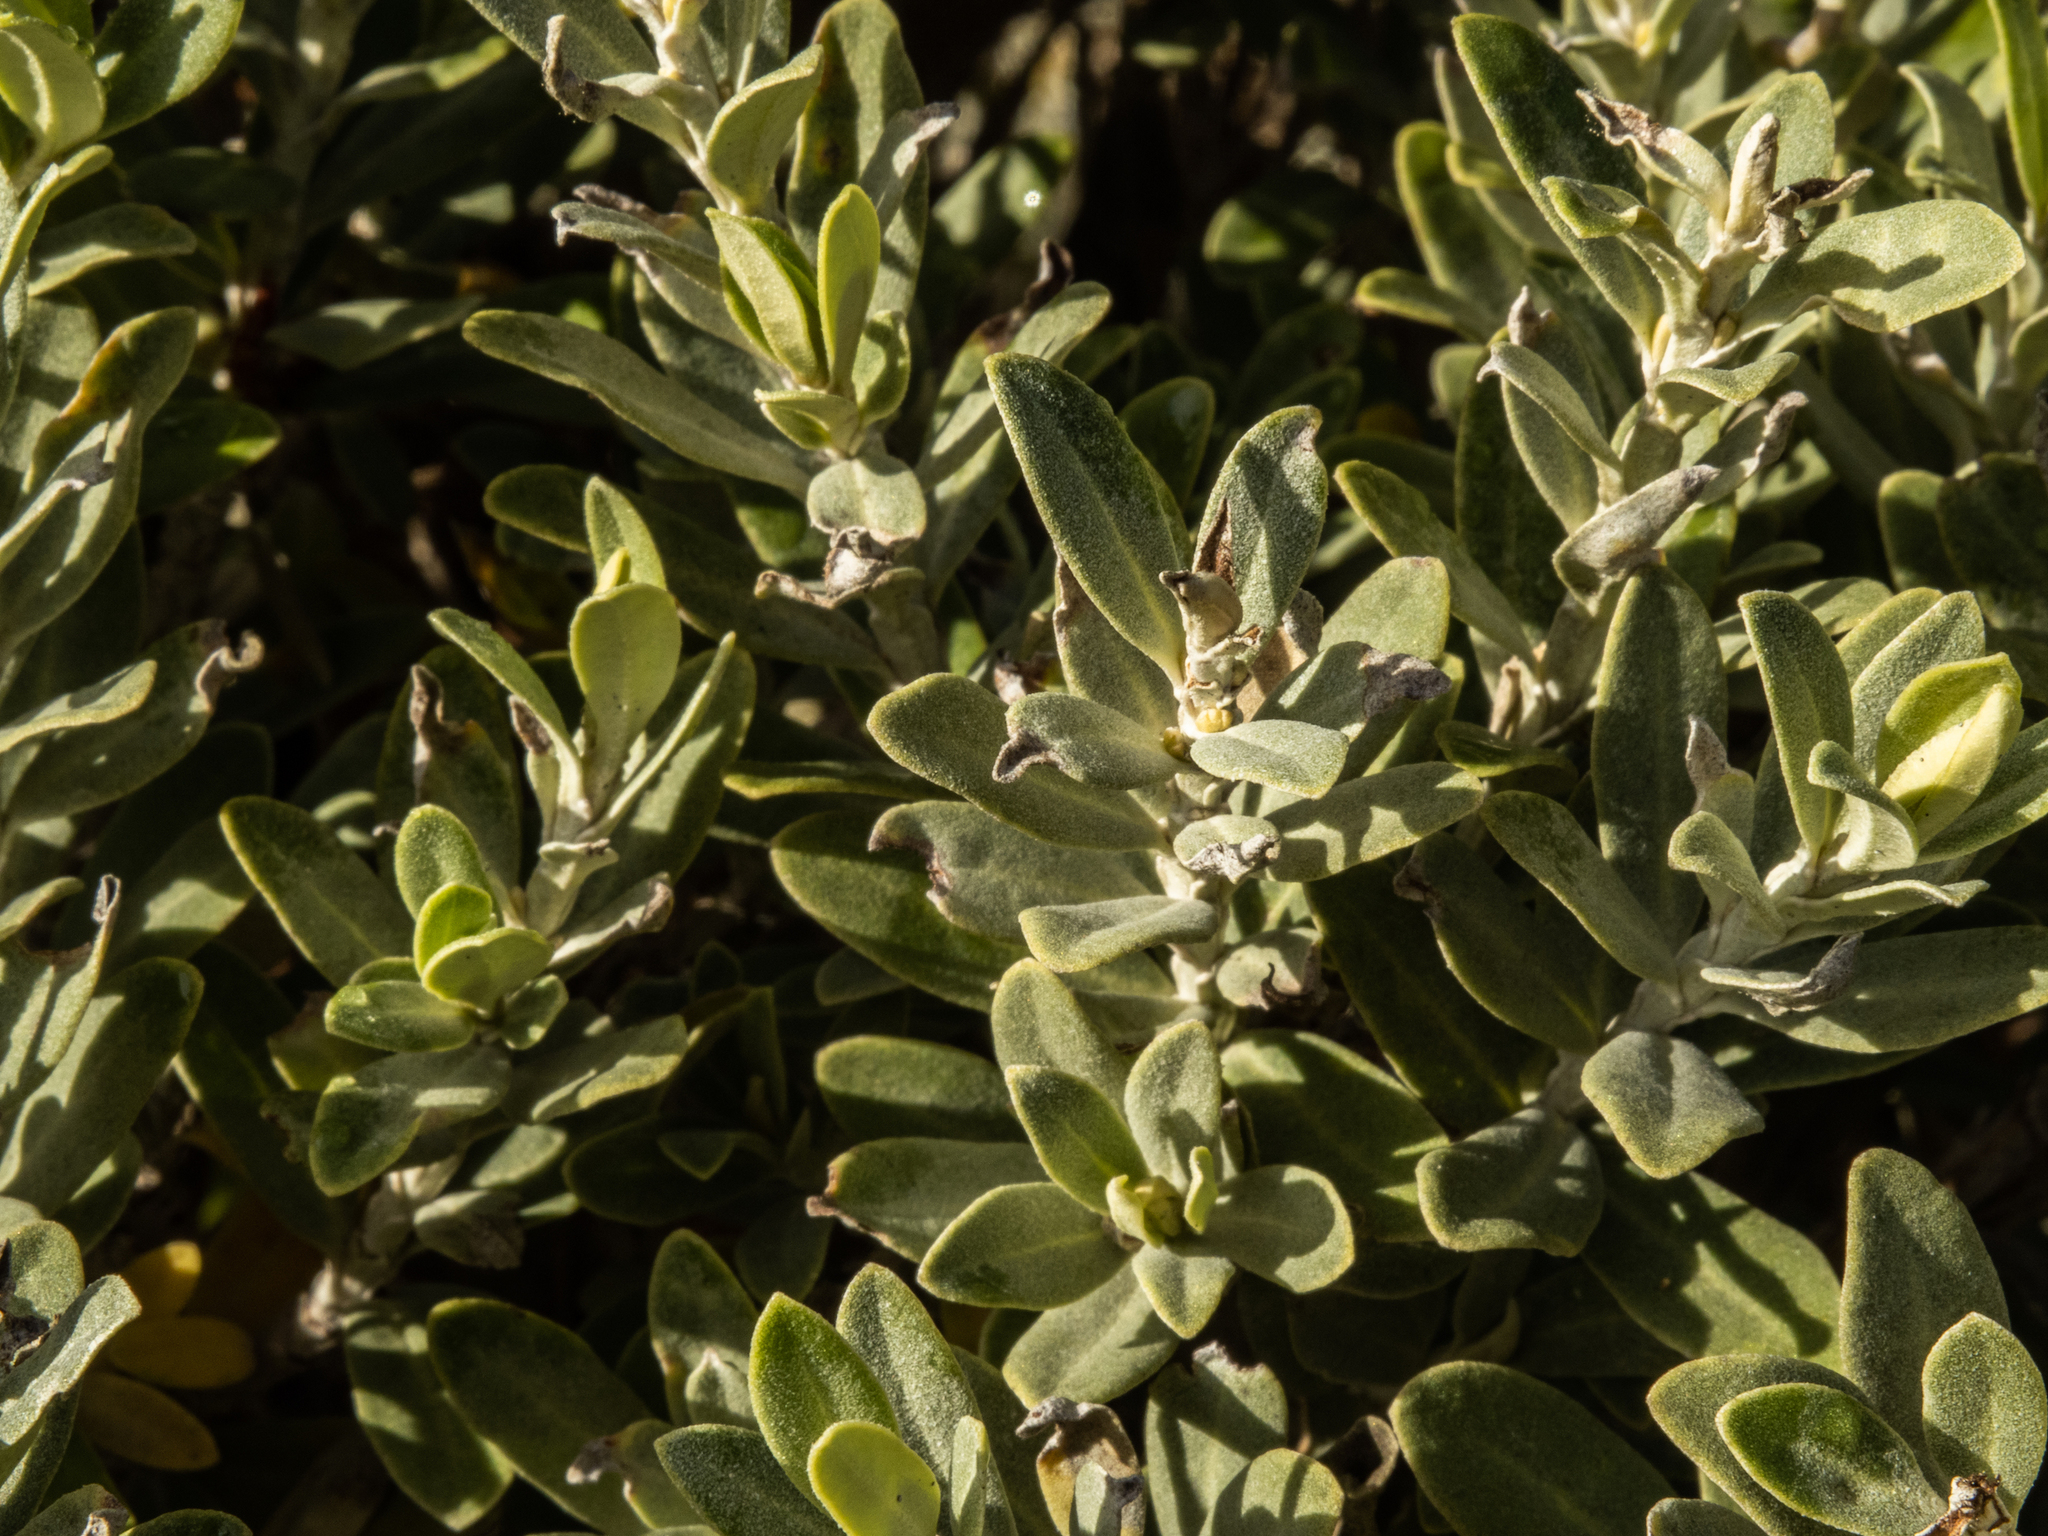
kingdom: Plantae
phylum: Tracheophyta
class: Magnoliopsida
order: Asterales
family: Asteraceae
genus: Olearia
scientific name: Olearia moschata
